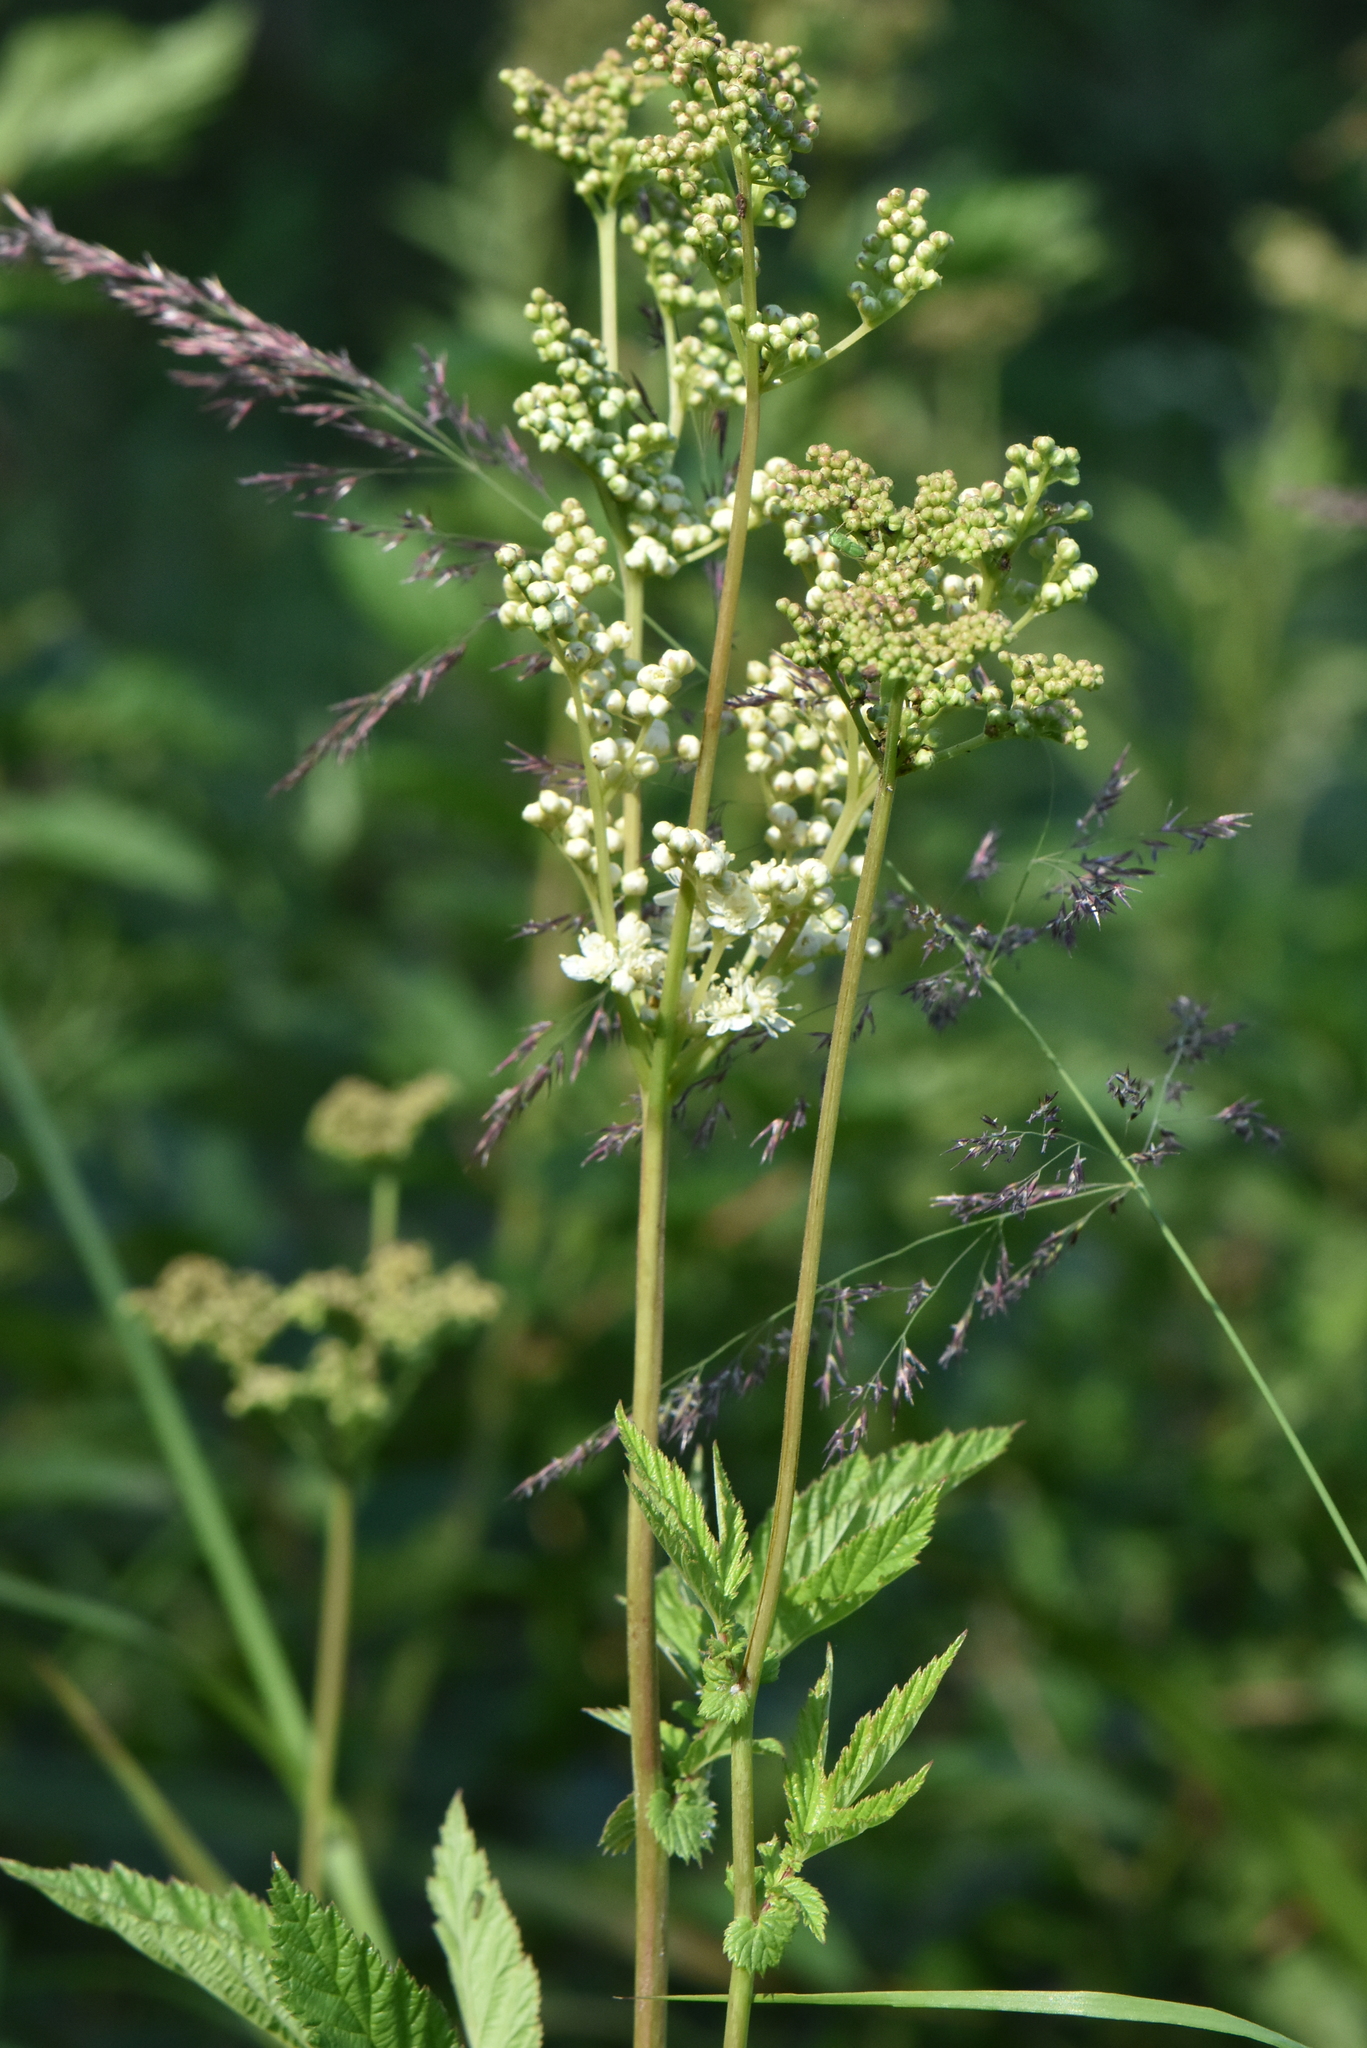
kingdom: Plantae
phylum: Tracheophyta
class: Magnoliopsida
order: Rosales
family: Rosaceae
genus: Filipendula
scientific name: Filipendula ulmaria
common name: Meadowsweet
